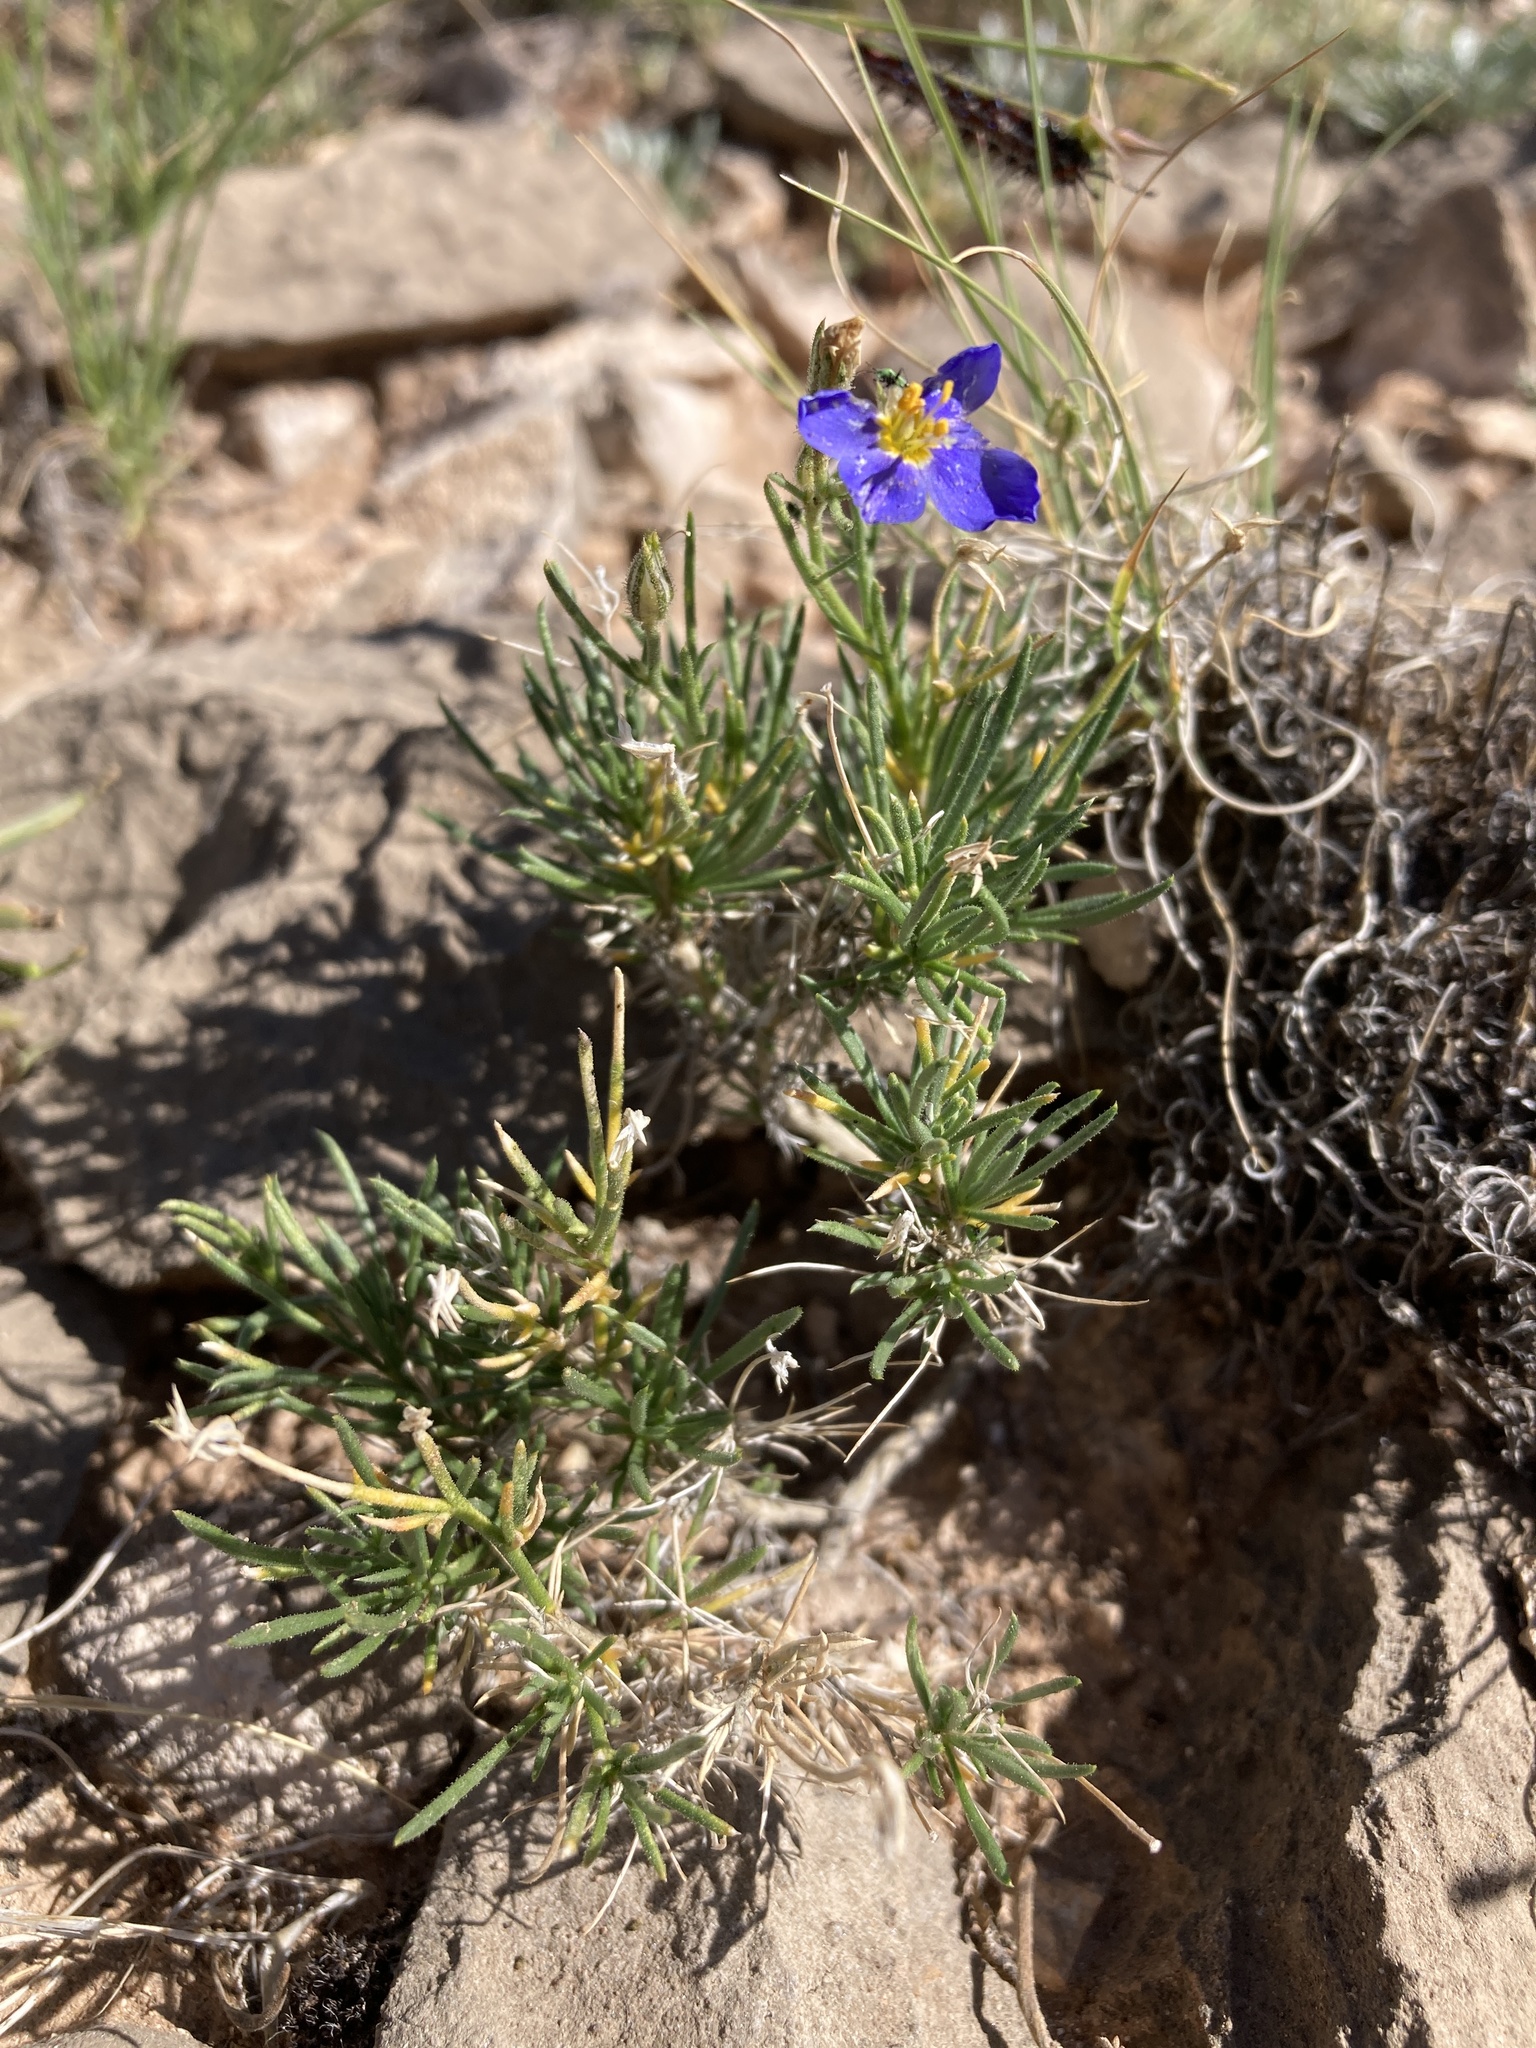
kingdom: Plantae
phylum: Tracheophyta
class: Magnoliopsida
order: Ericales
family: Polemoniaceae
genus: Giliastrum
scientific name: Giliastrum acerosum
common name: Bluebowls
